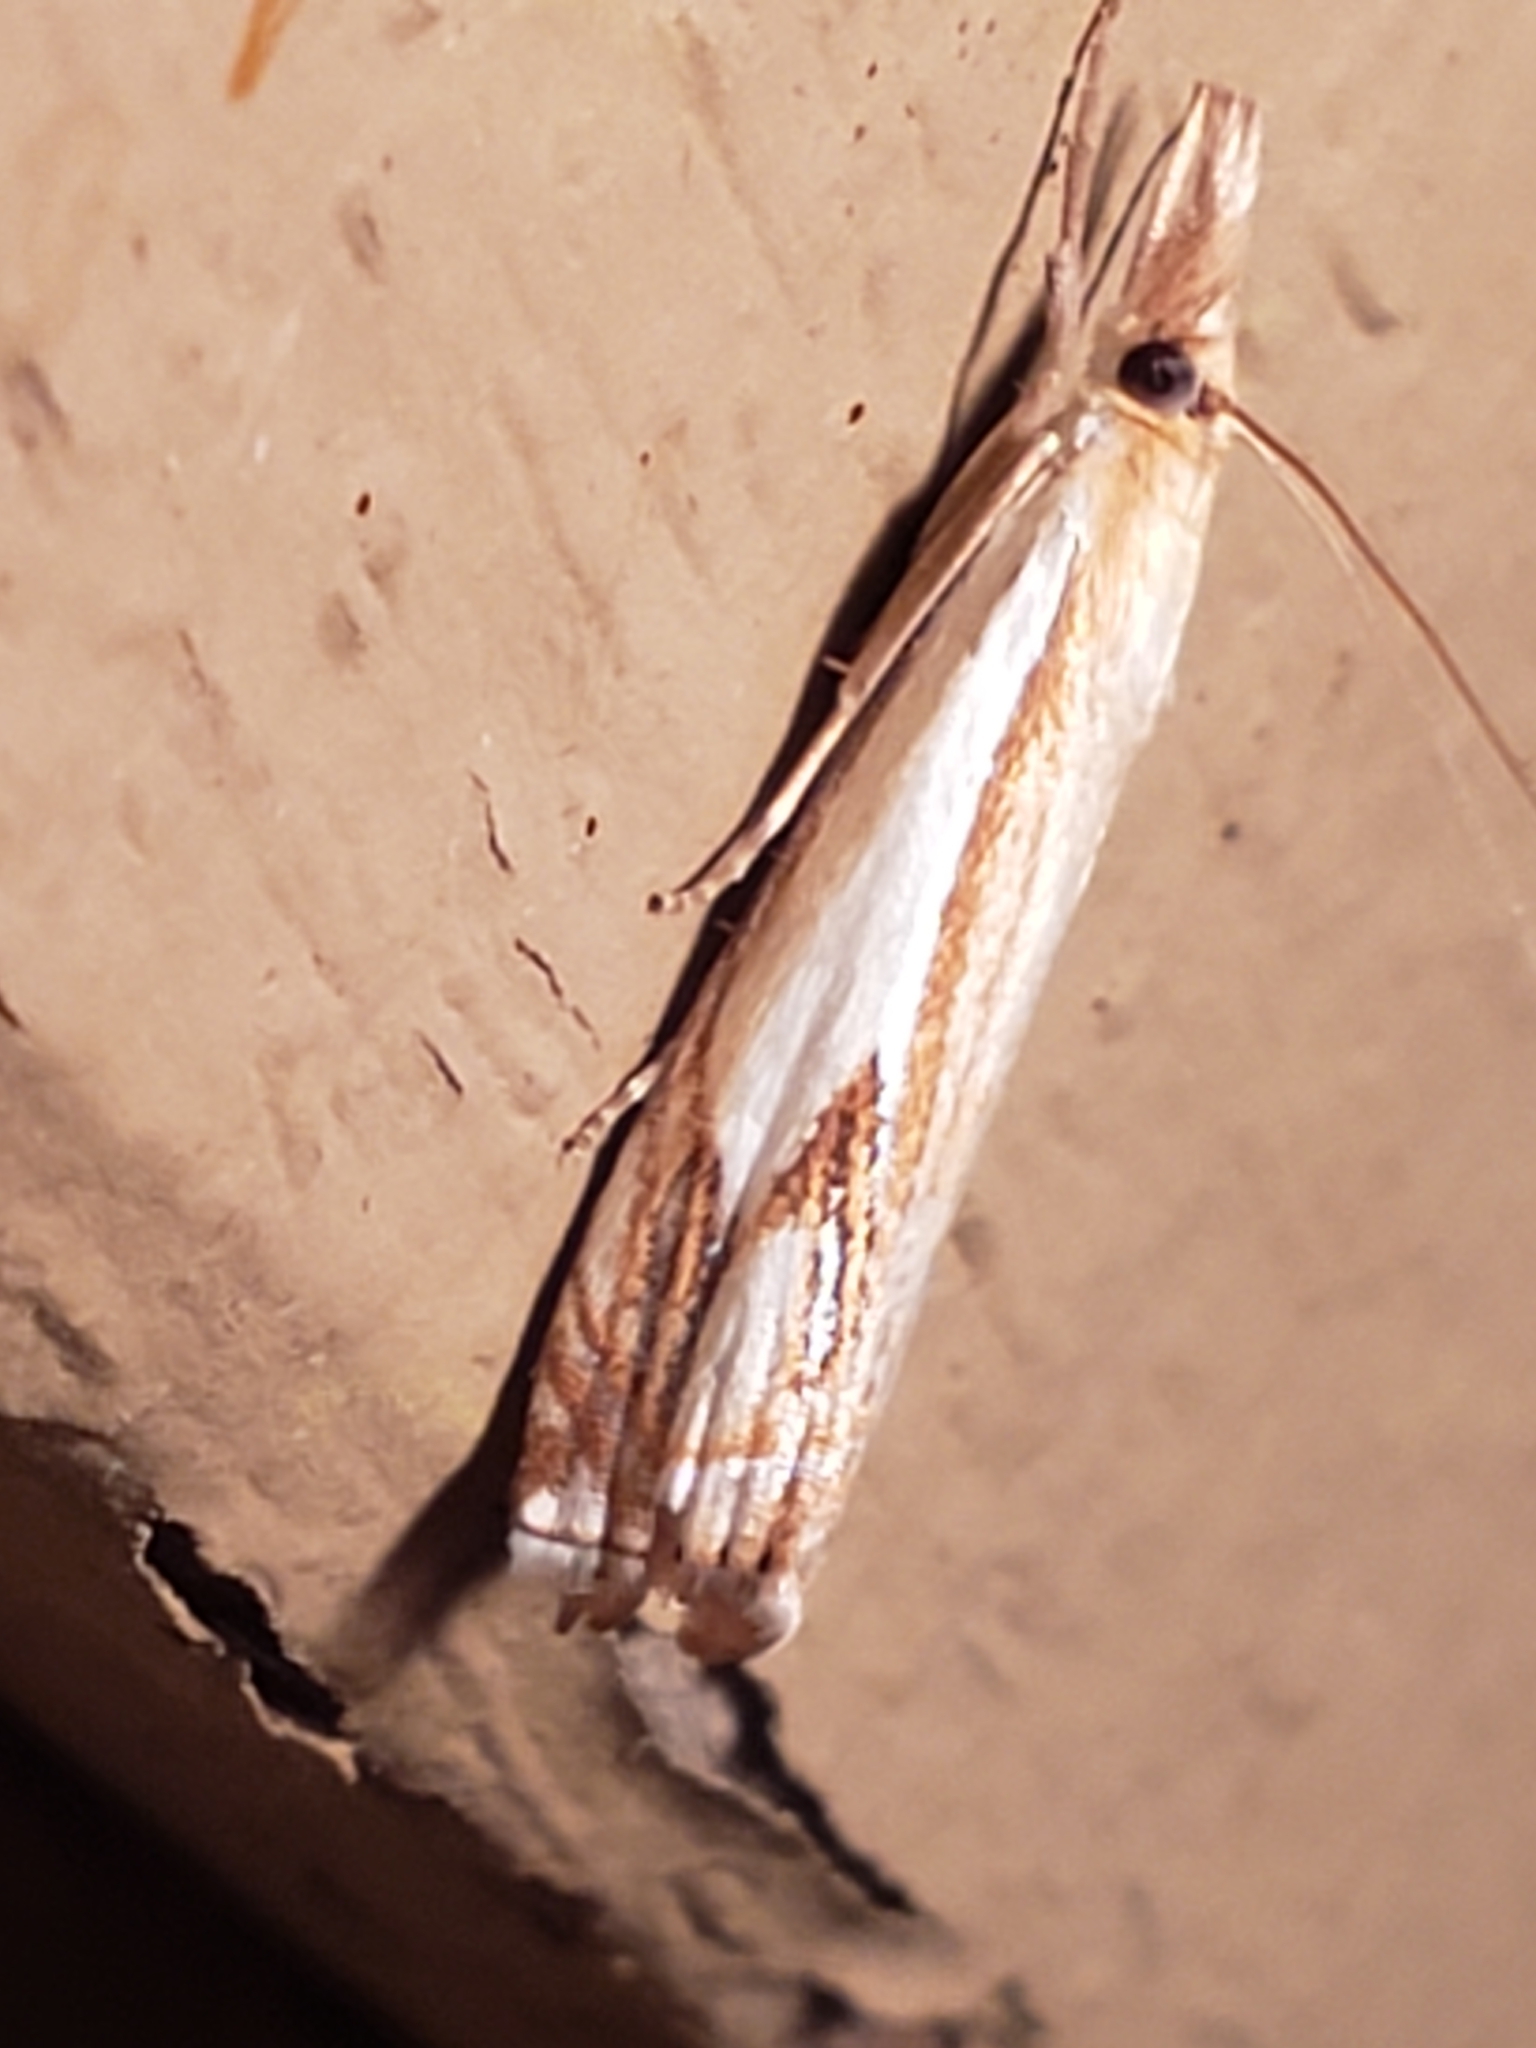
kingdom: Animalia
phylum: Arthropoda
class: Insecta
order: Lepidoptera
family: Crambidae
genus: Crambus
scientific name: Crambus agitatellus
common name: Double-banded grass-veneer
